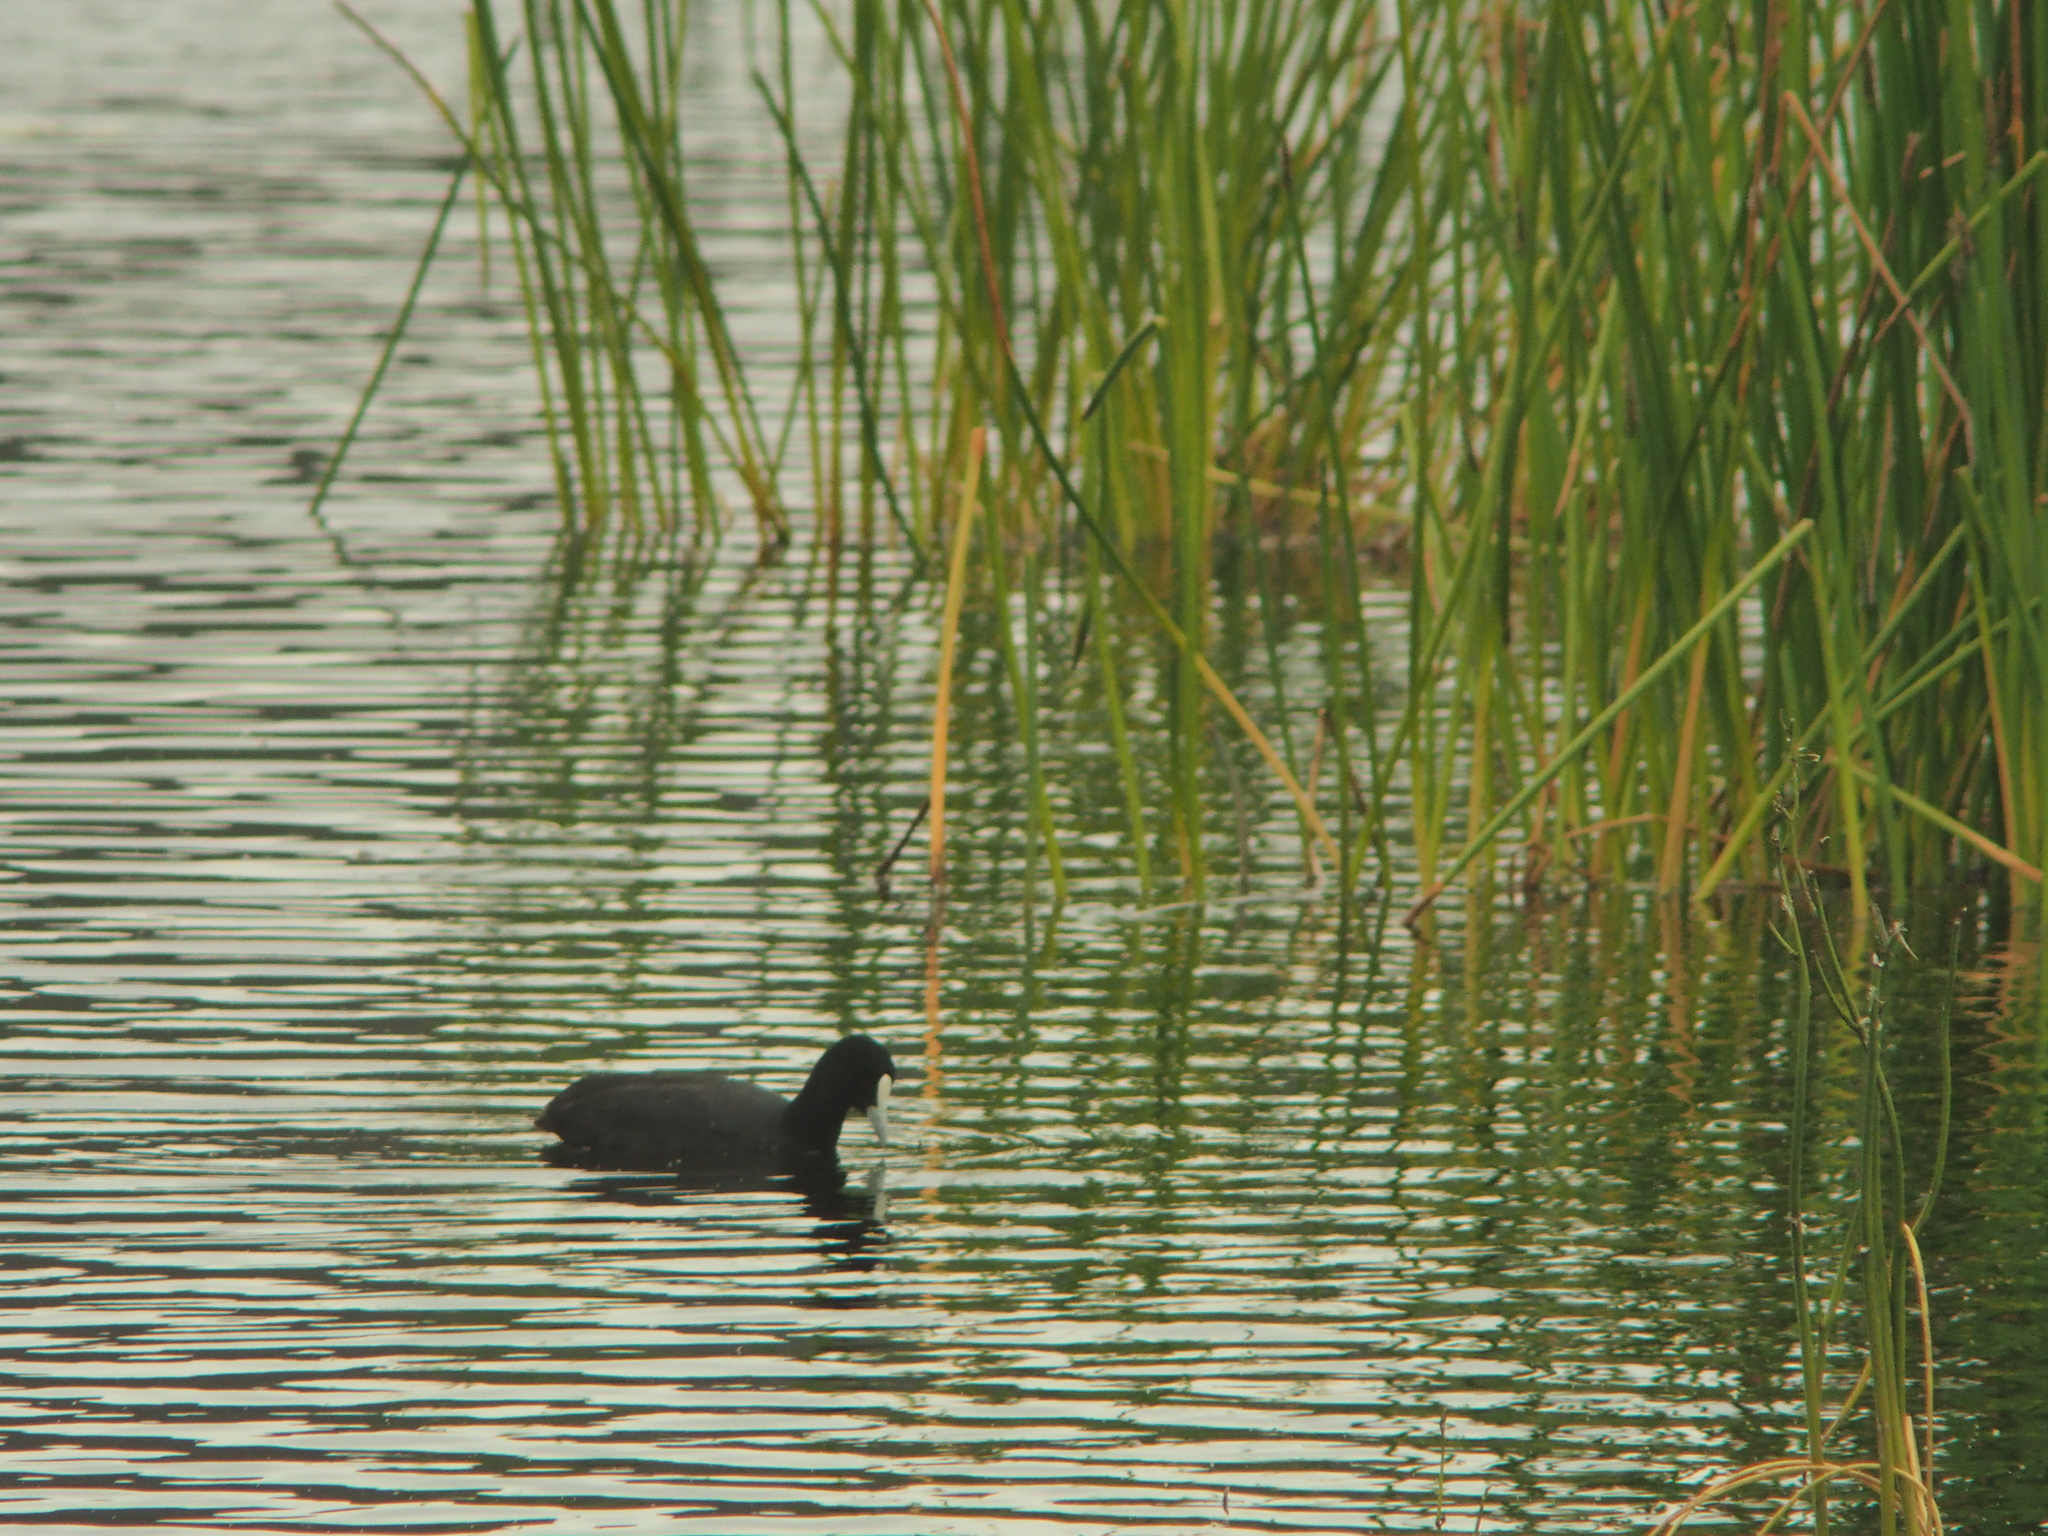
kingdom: Animalia
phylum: Chordata
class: Aves
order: Gruiformes
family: Rallidae
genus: Fulica
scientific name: Fulica atra
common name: Eurasian coot
